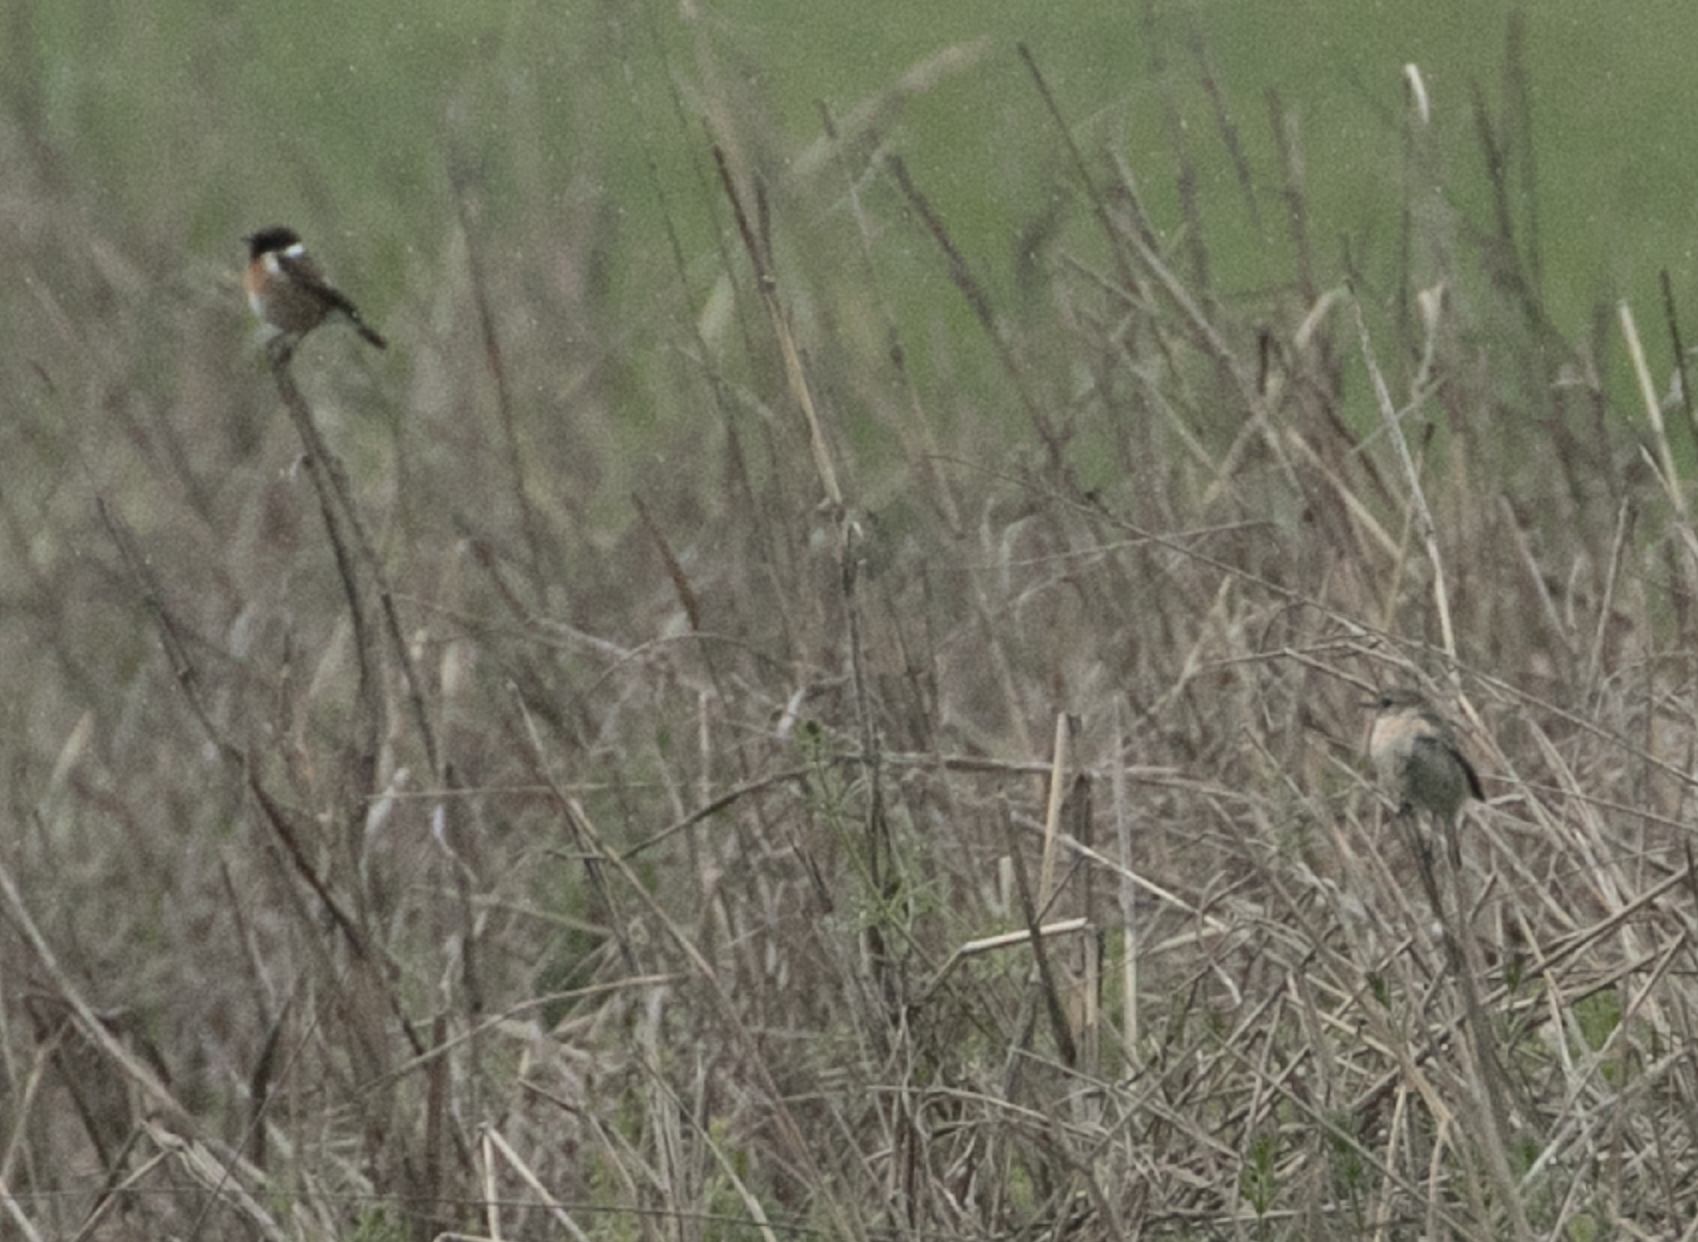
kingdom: Animalia
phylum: Chordata
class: Aves
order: Passeriformes
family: Muscicapidae
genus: Saxicola
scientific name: Saxicola rubicola
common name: European stonechat
